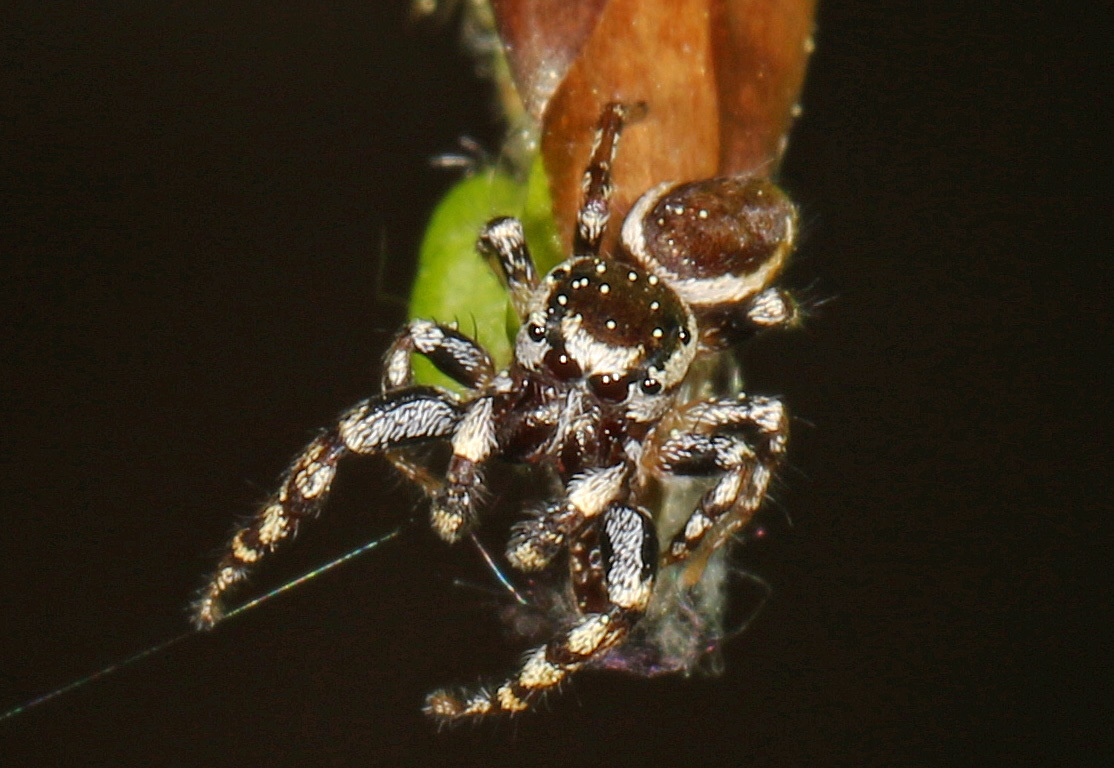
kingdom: Animalia
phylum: Arthropoda
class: Arachnida
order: Araneae
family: Salticidae
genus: Pelegrina
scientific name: Pelegrina proterva
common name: Common white-cheeked jumping spider
